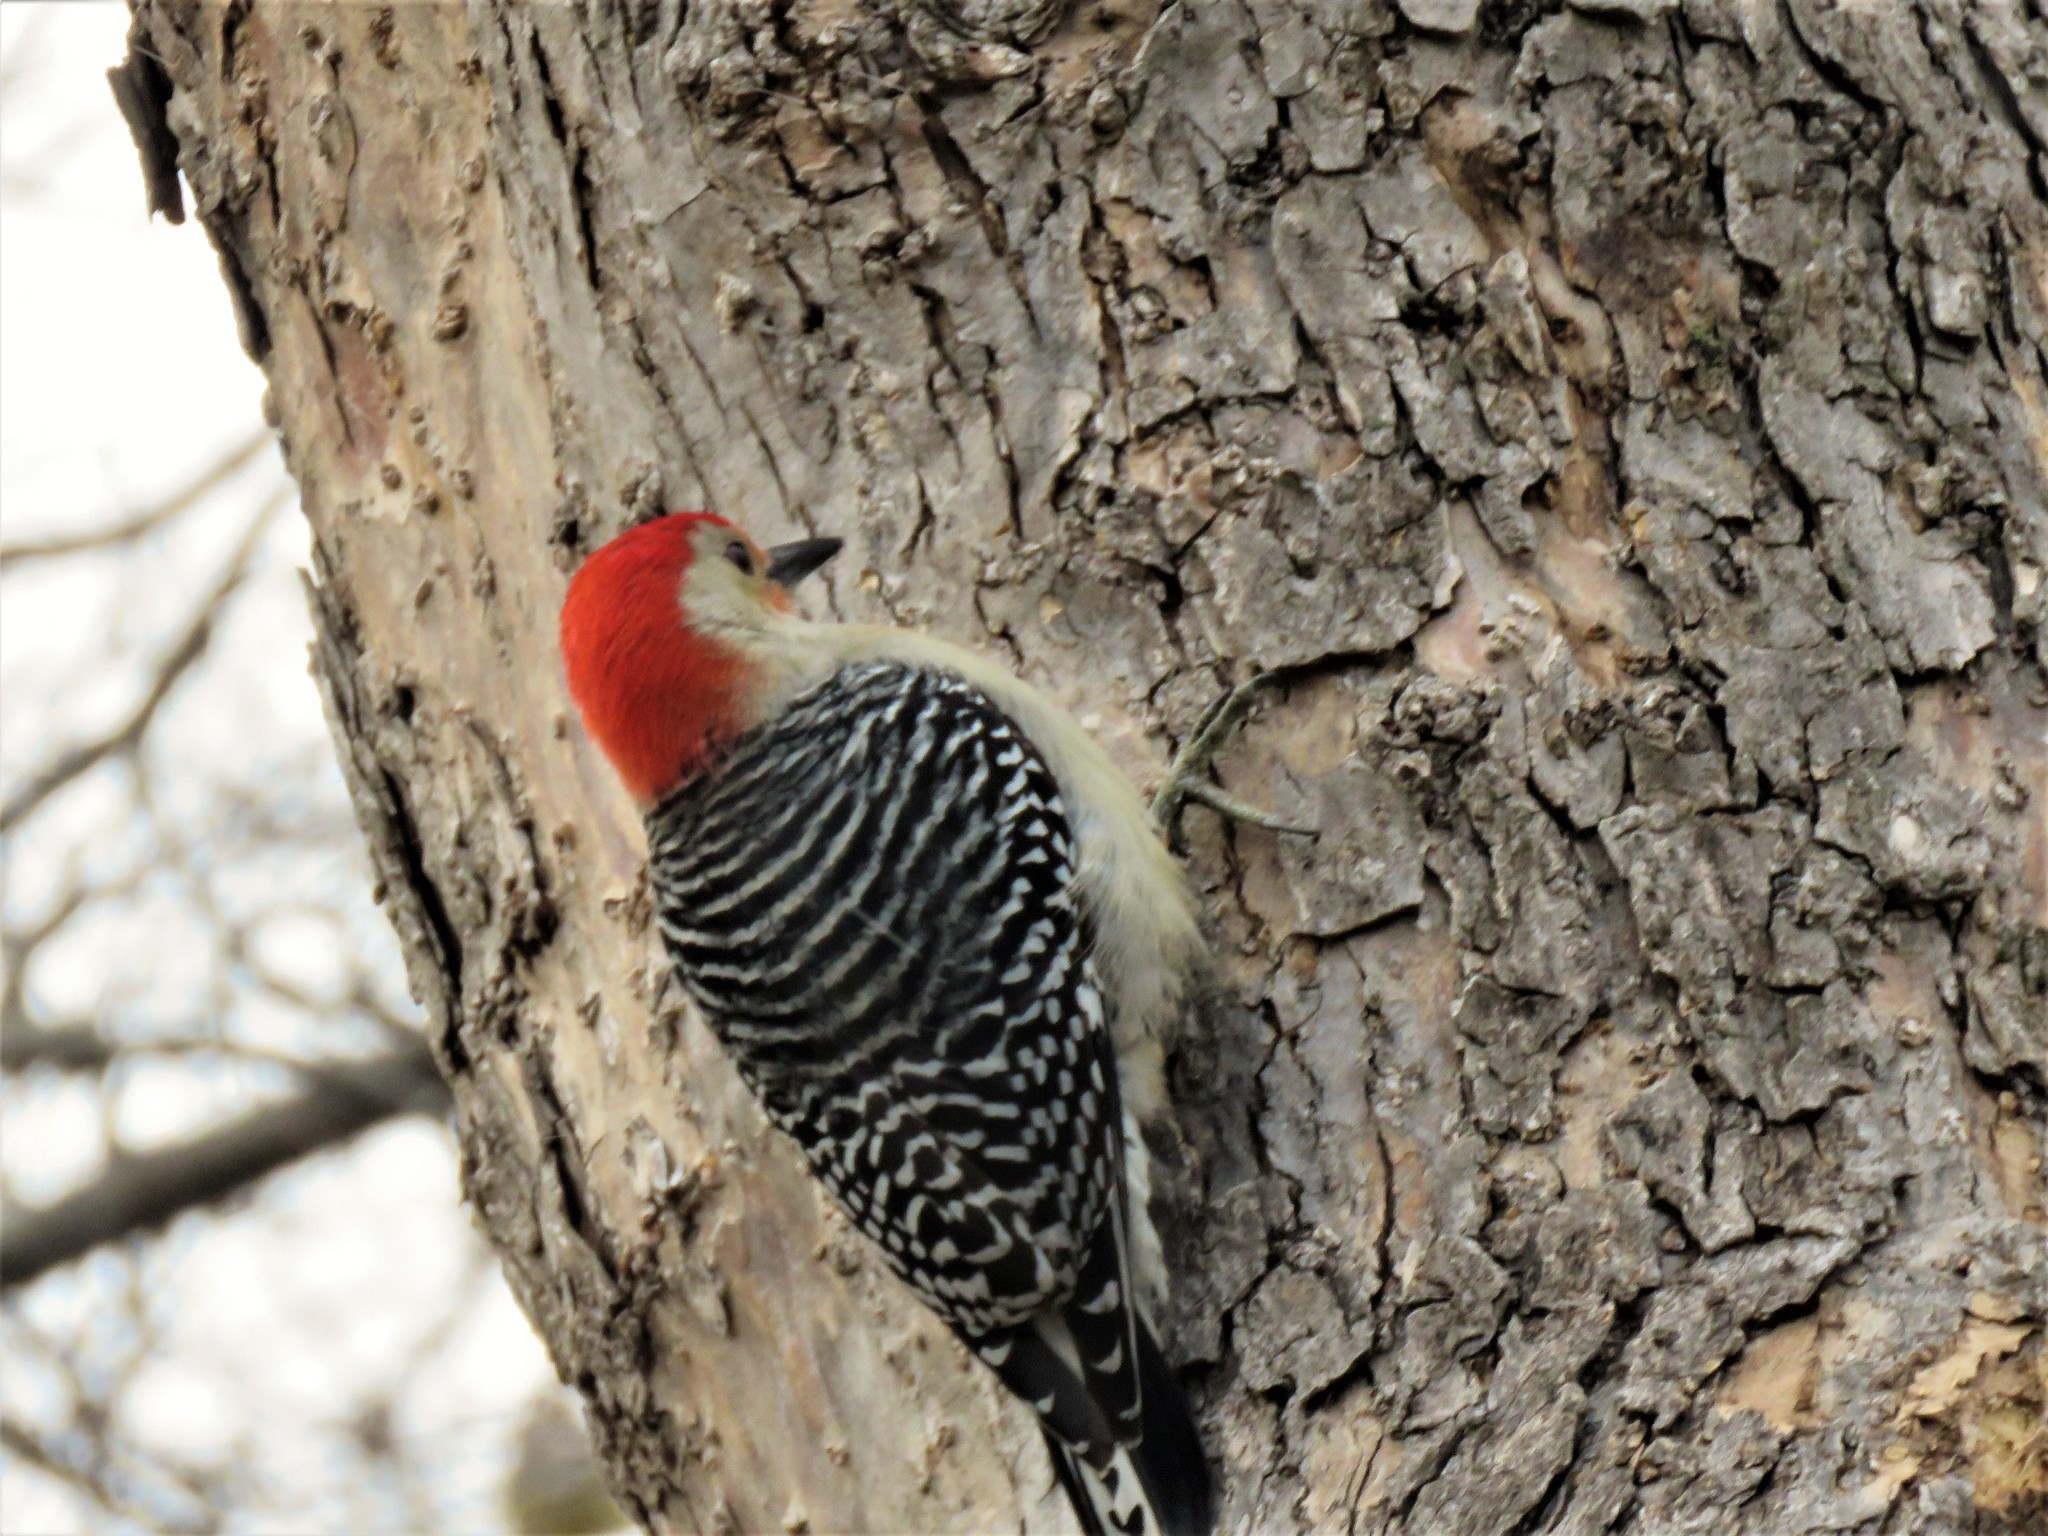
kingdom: Animalia
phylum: Chordata
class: Aves
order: Piciformes
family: Picidae
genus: Melanerpes
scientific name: Melanerpes carolinus
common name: Red-bellied woodpecker
